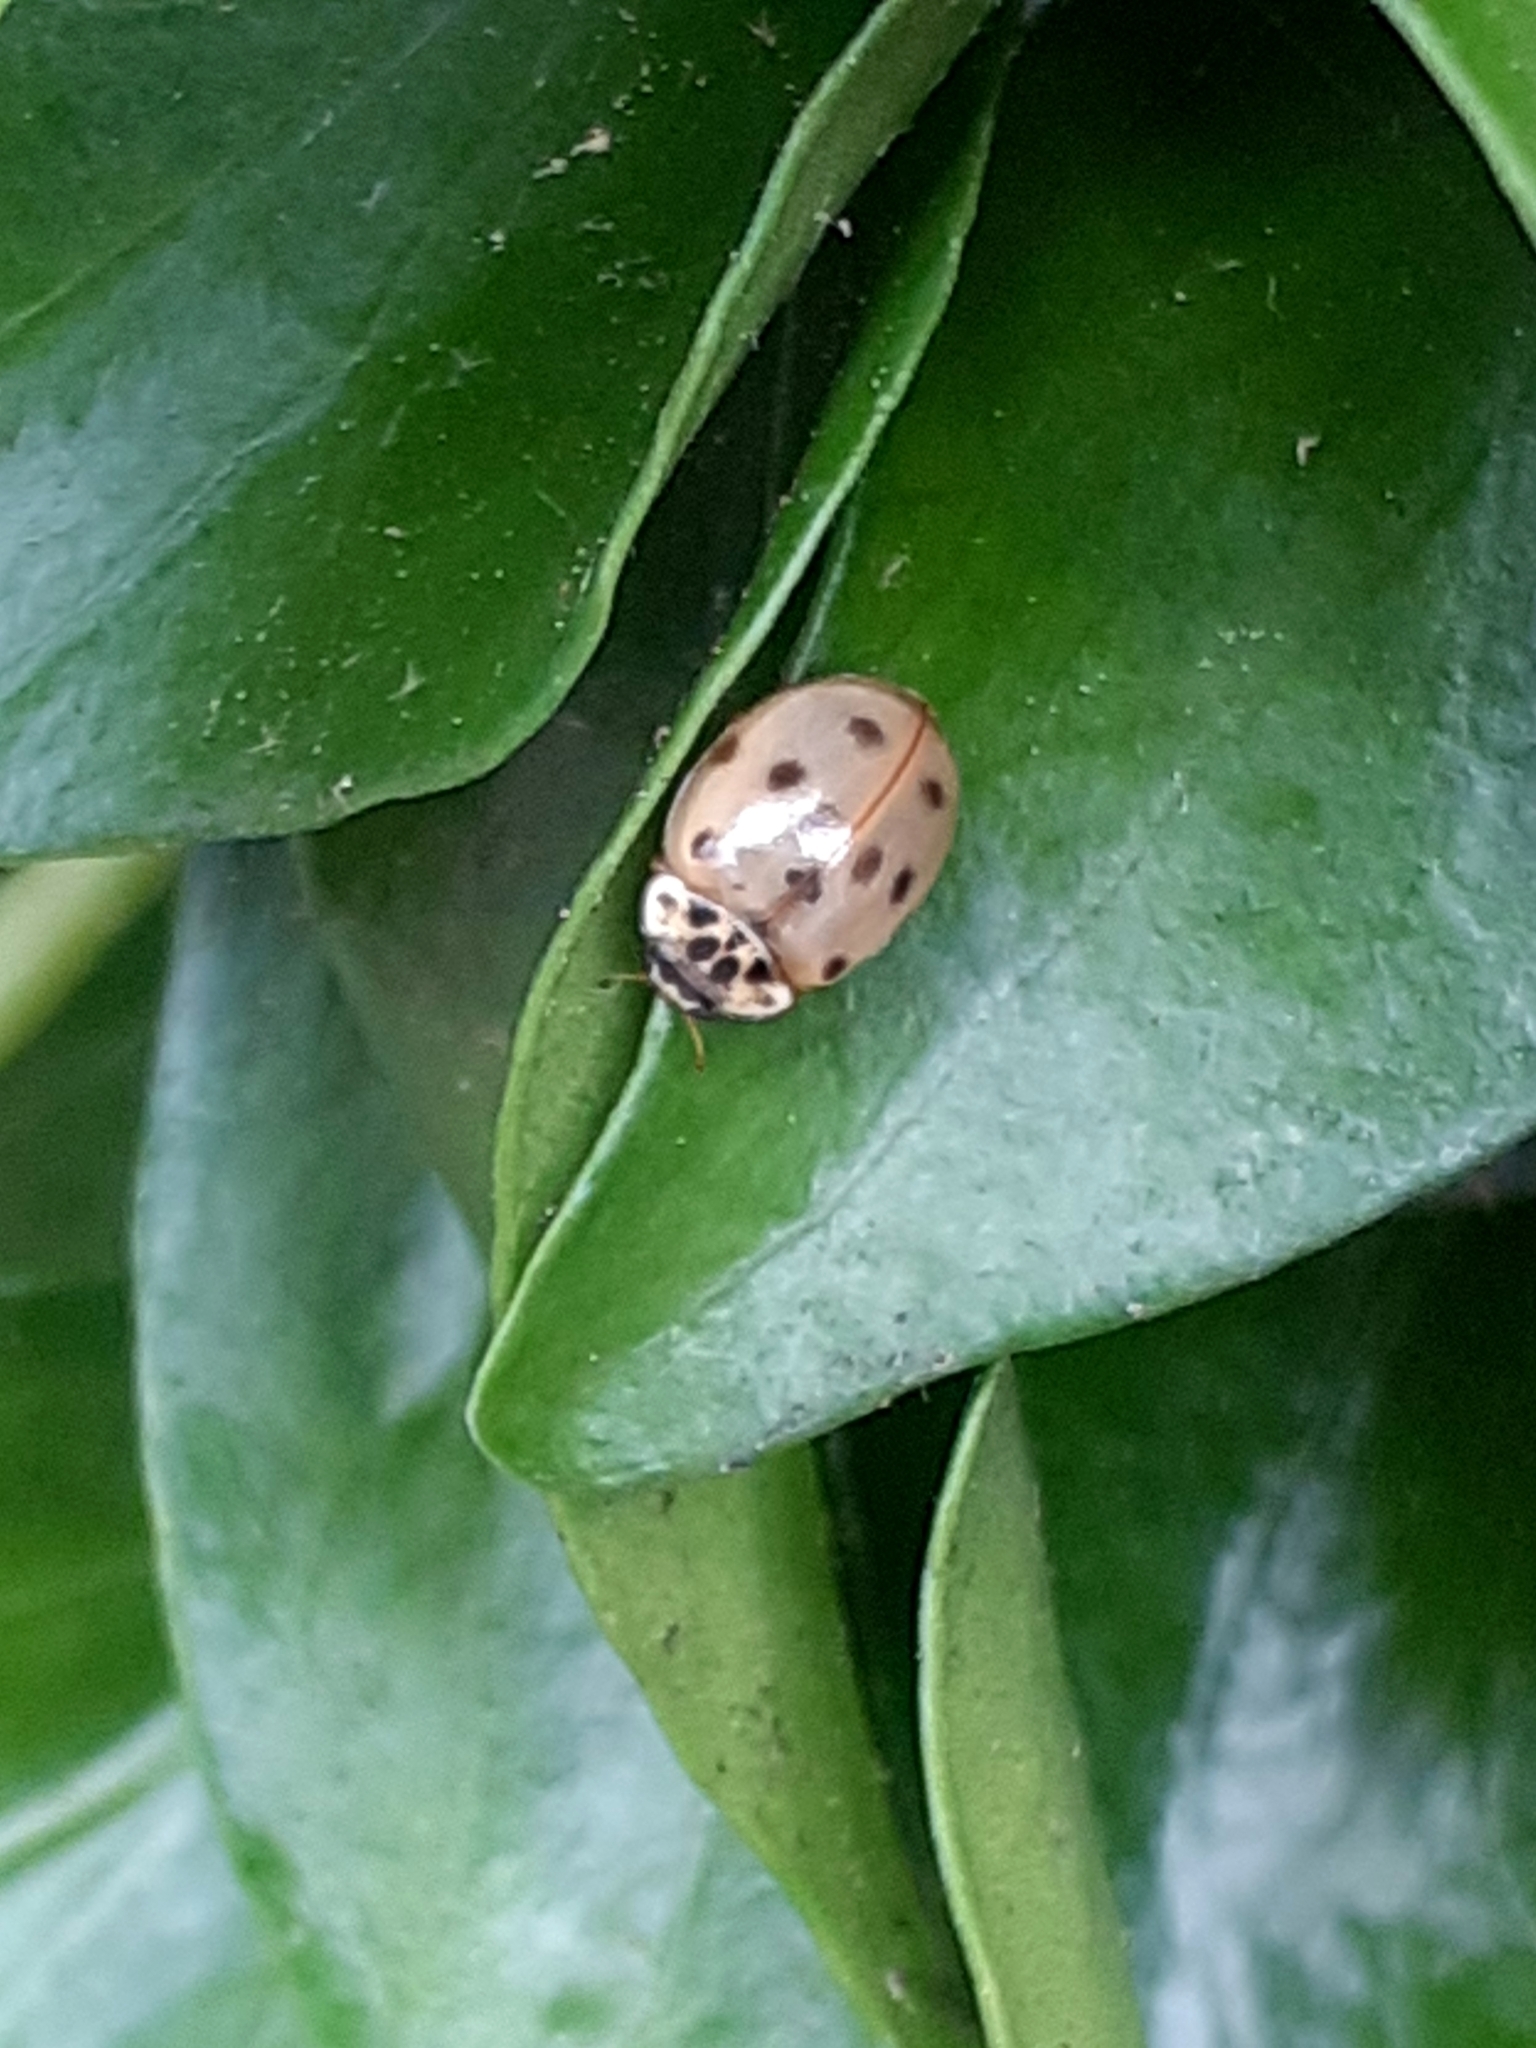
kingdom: Animalia
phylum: Arthropoda
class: Insecta
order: Coleoptera
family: Coccinellidae
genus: Adalia
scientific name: Adalia decempunctata
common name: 10-spot ladybird
